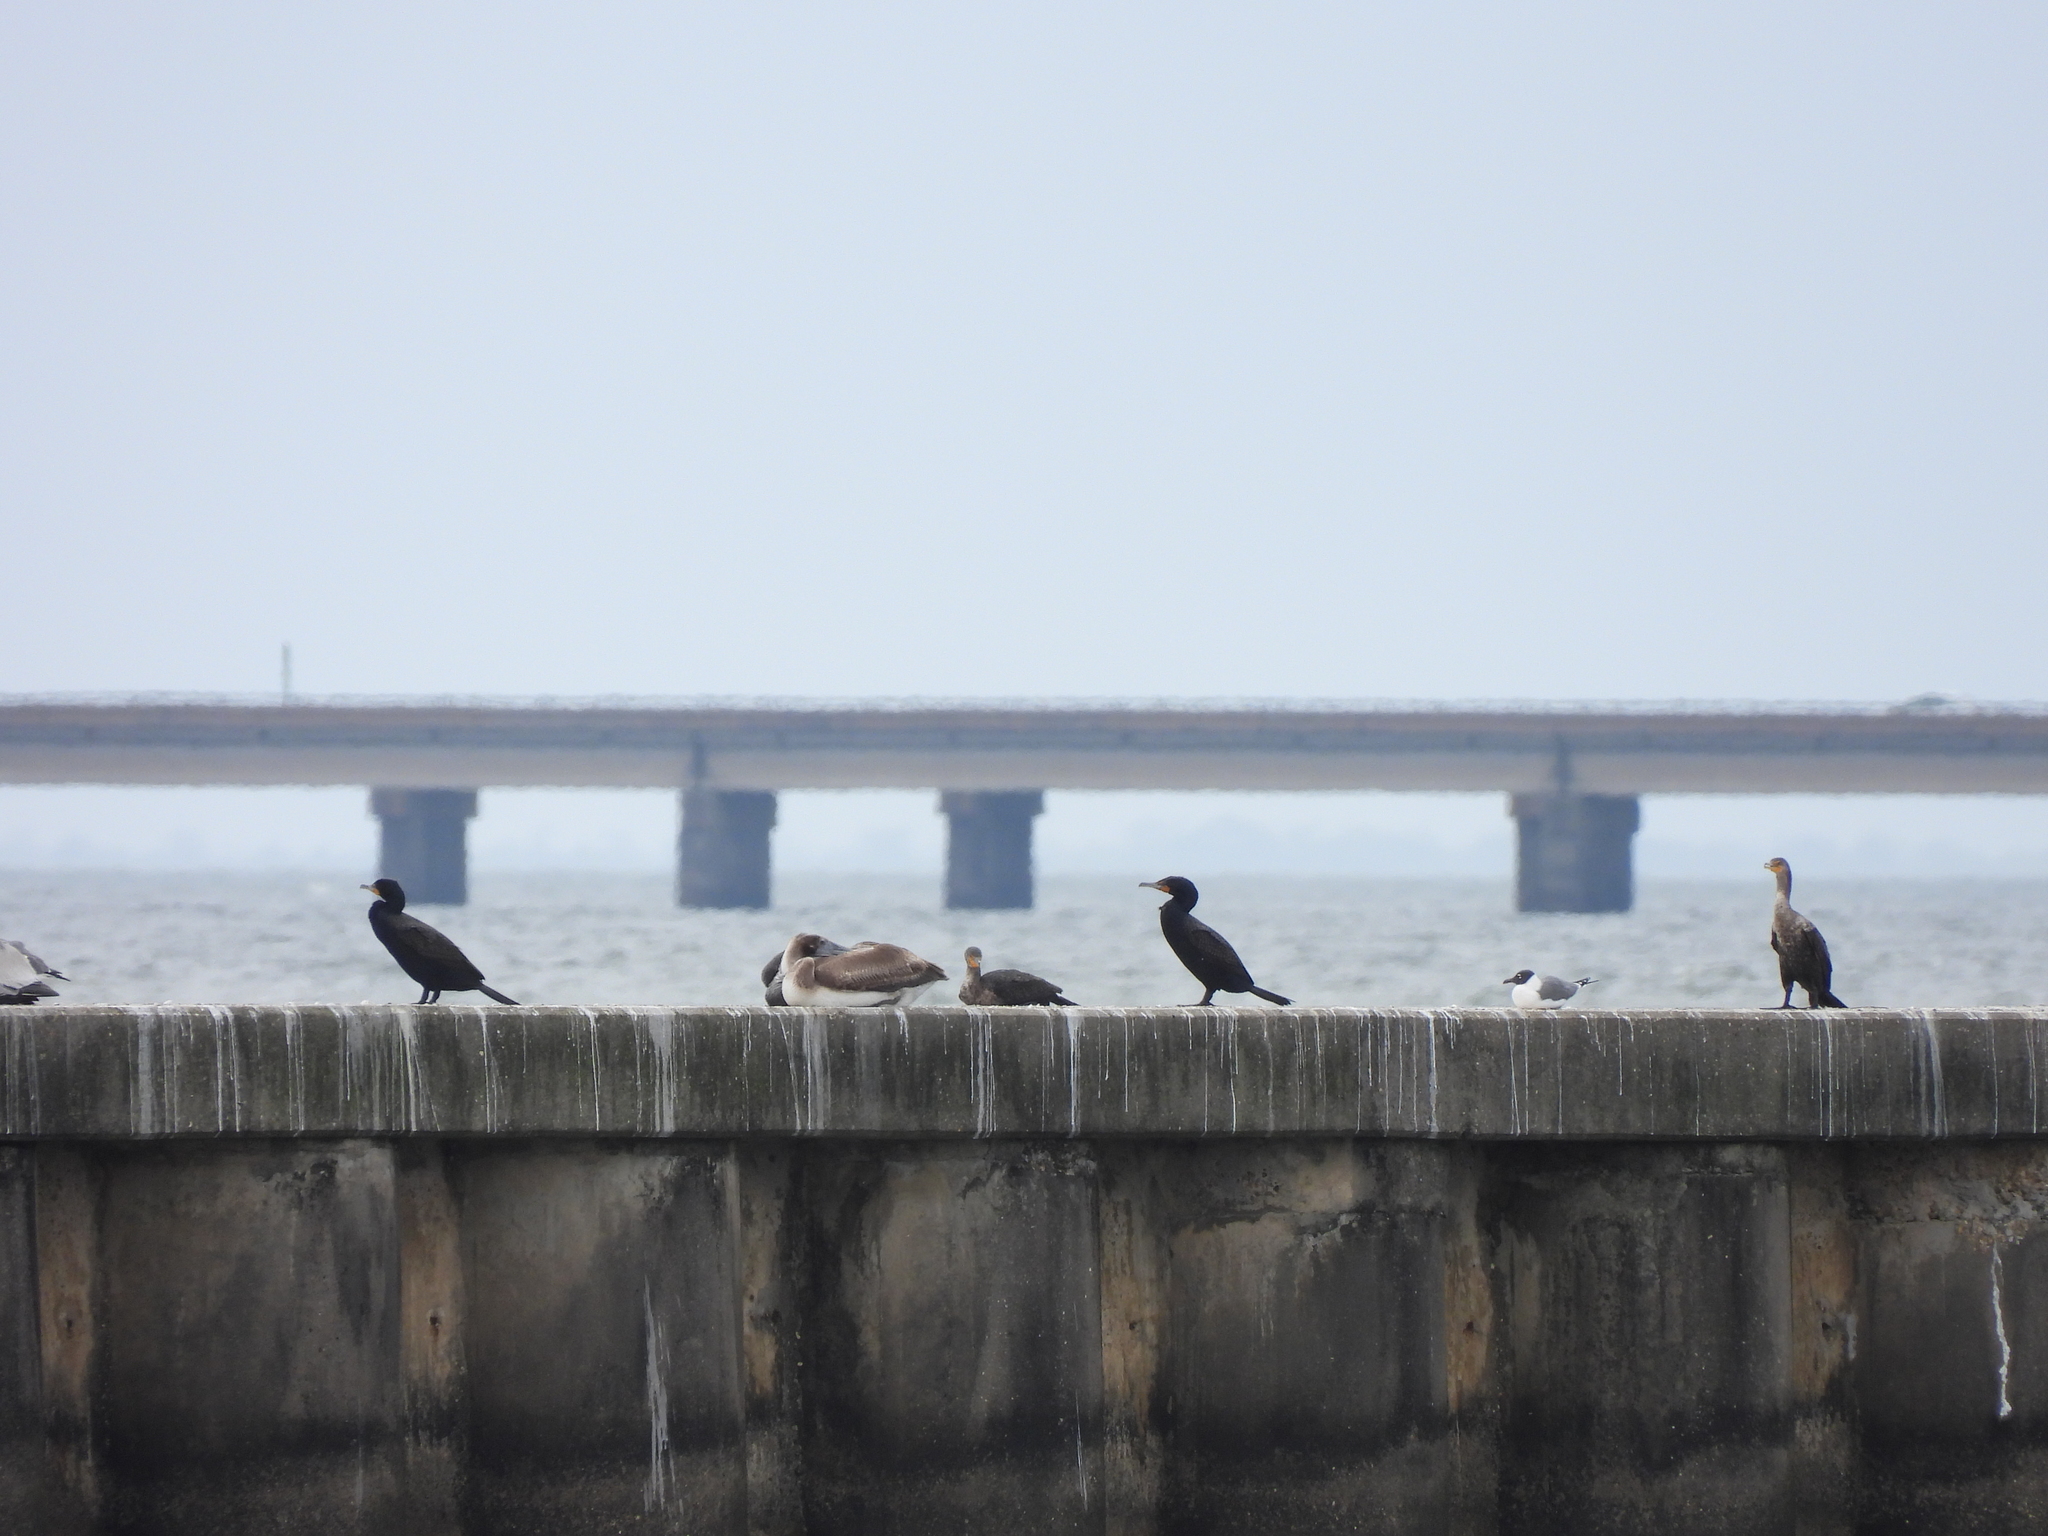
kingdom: Animalia
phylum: Chordata
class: Aves
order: Suliformes
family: Phalacrocoracidae
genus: Phalacrocorax
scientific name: Phalacrocorax auritus
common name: Double-crested cormorant
